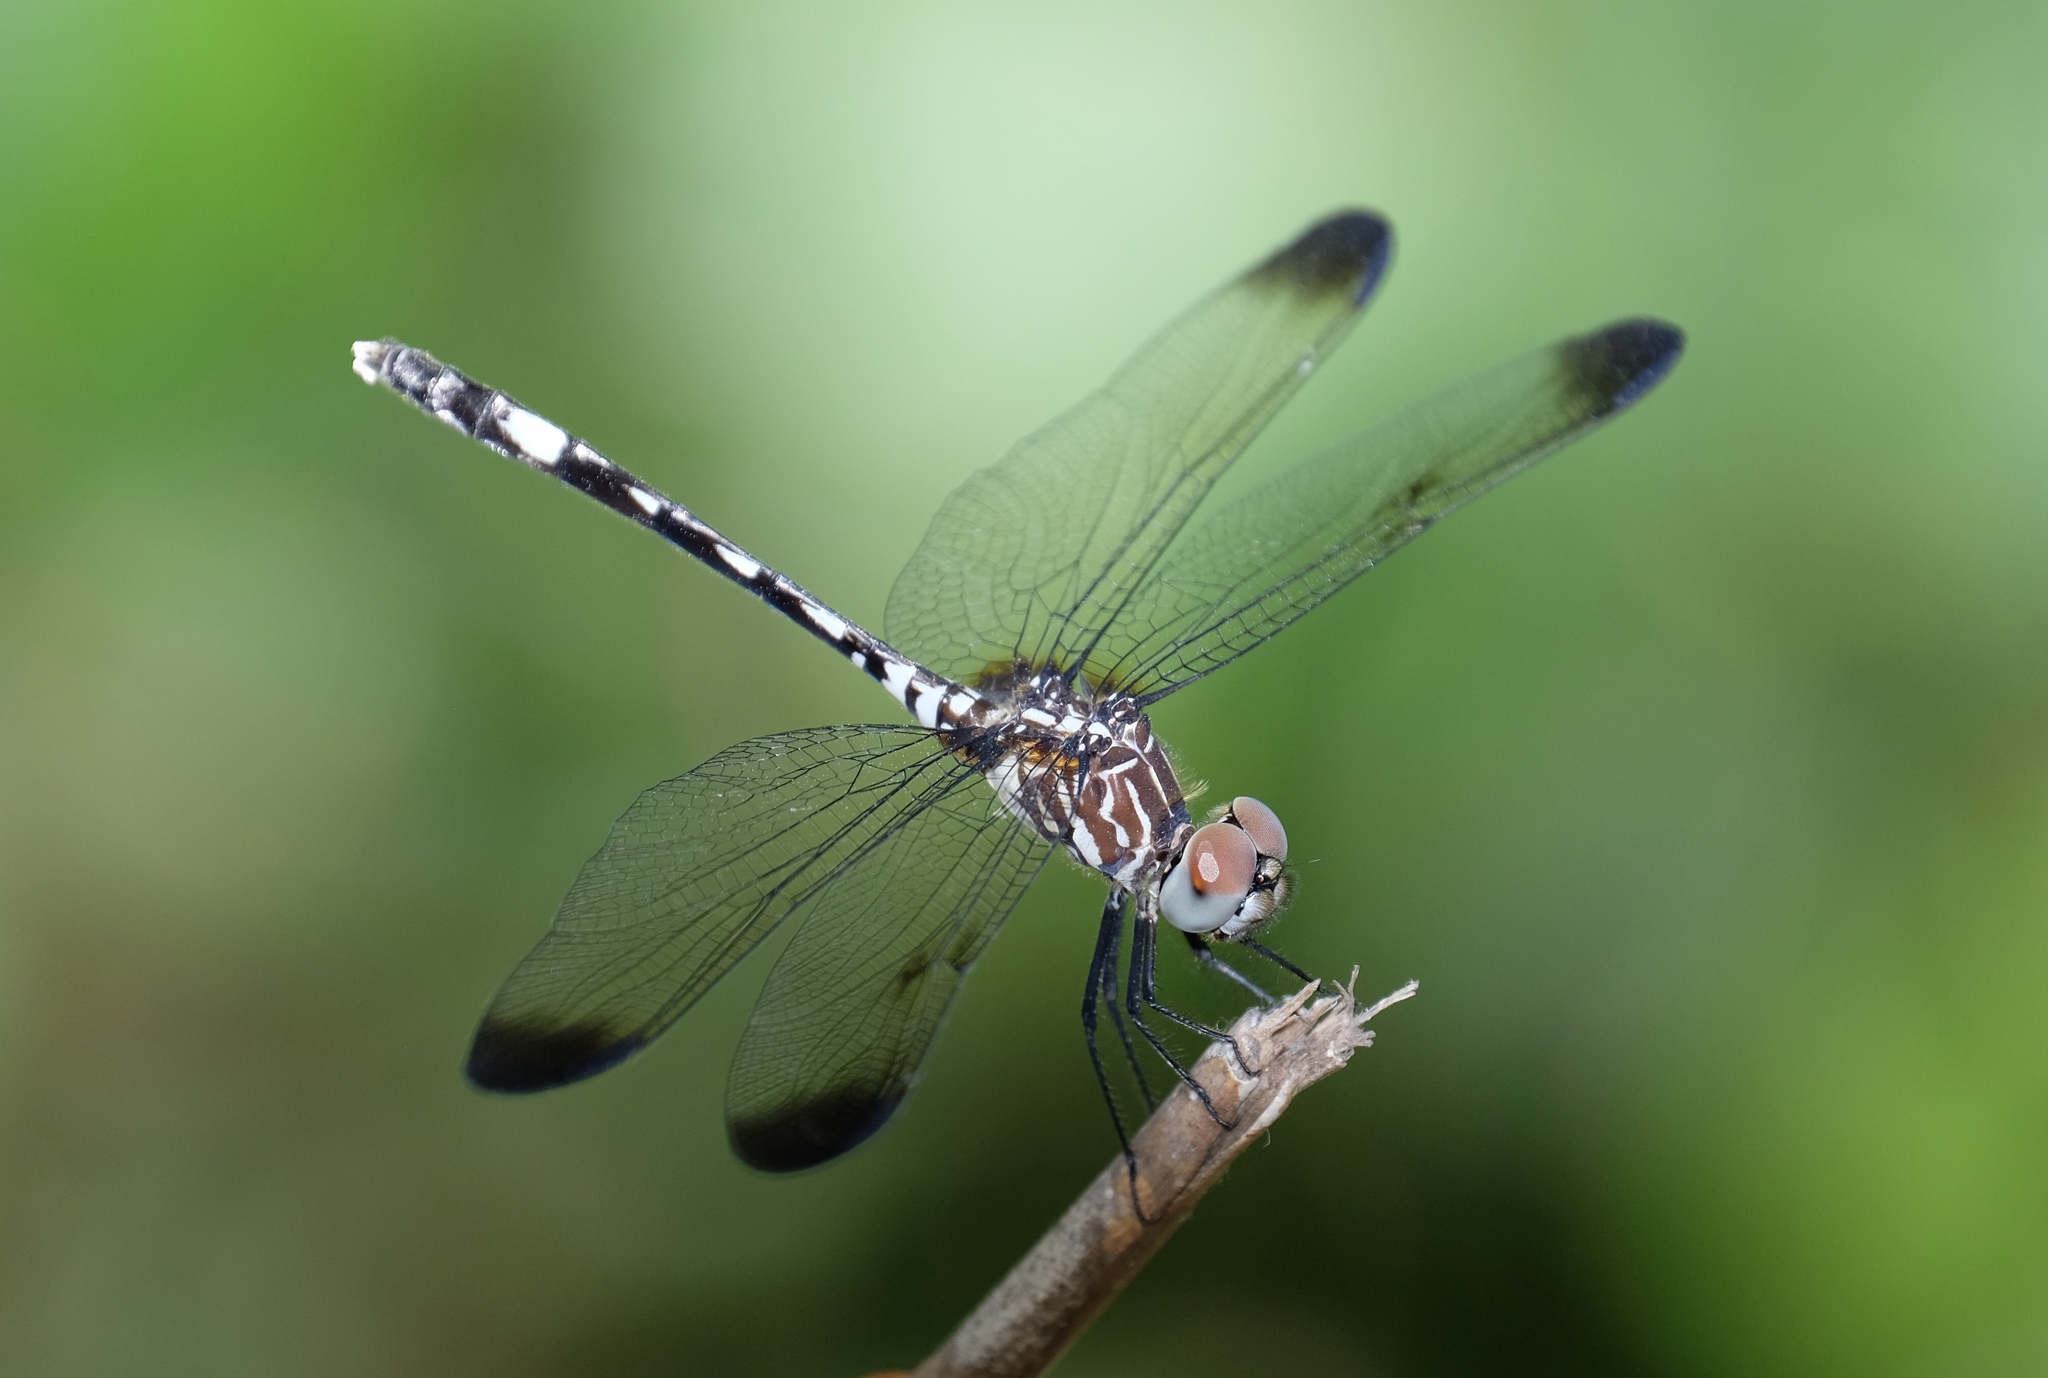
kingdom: Animalia
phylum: Arthropoda
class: Insecta
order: Odonata
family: Libellulidae
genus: Dythemis
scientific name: Dythemis velox
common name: Swift setwing
